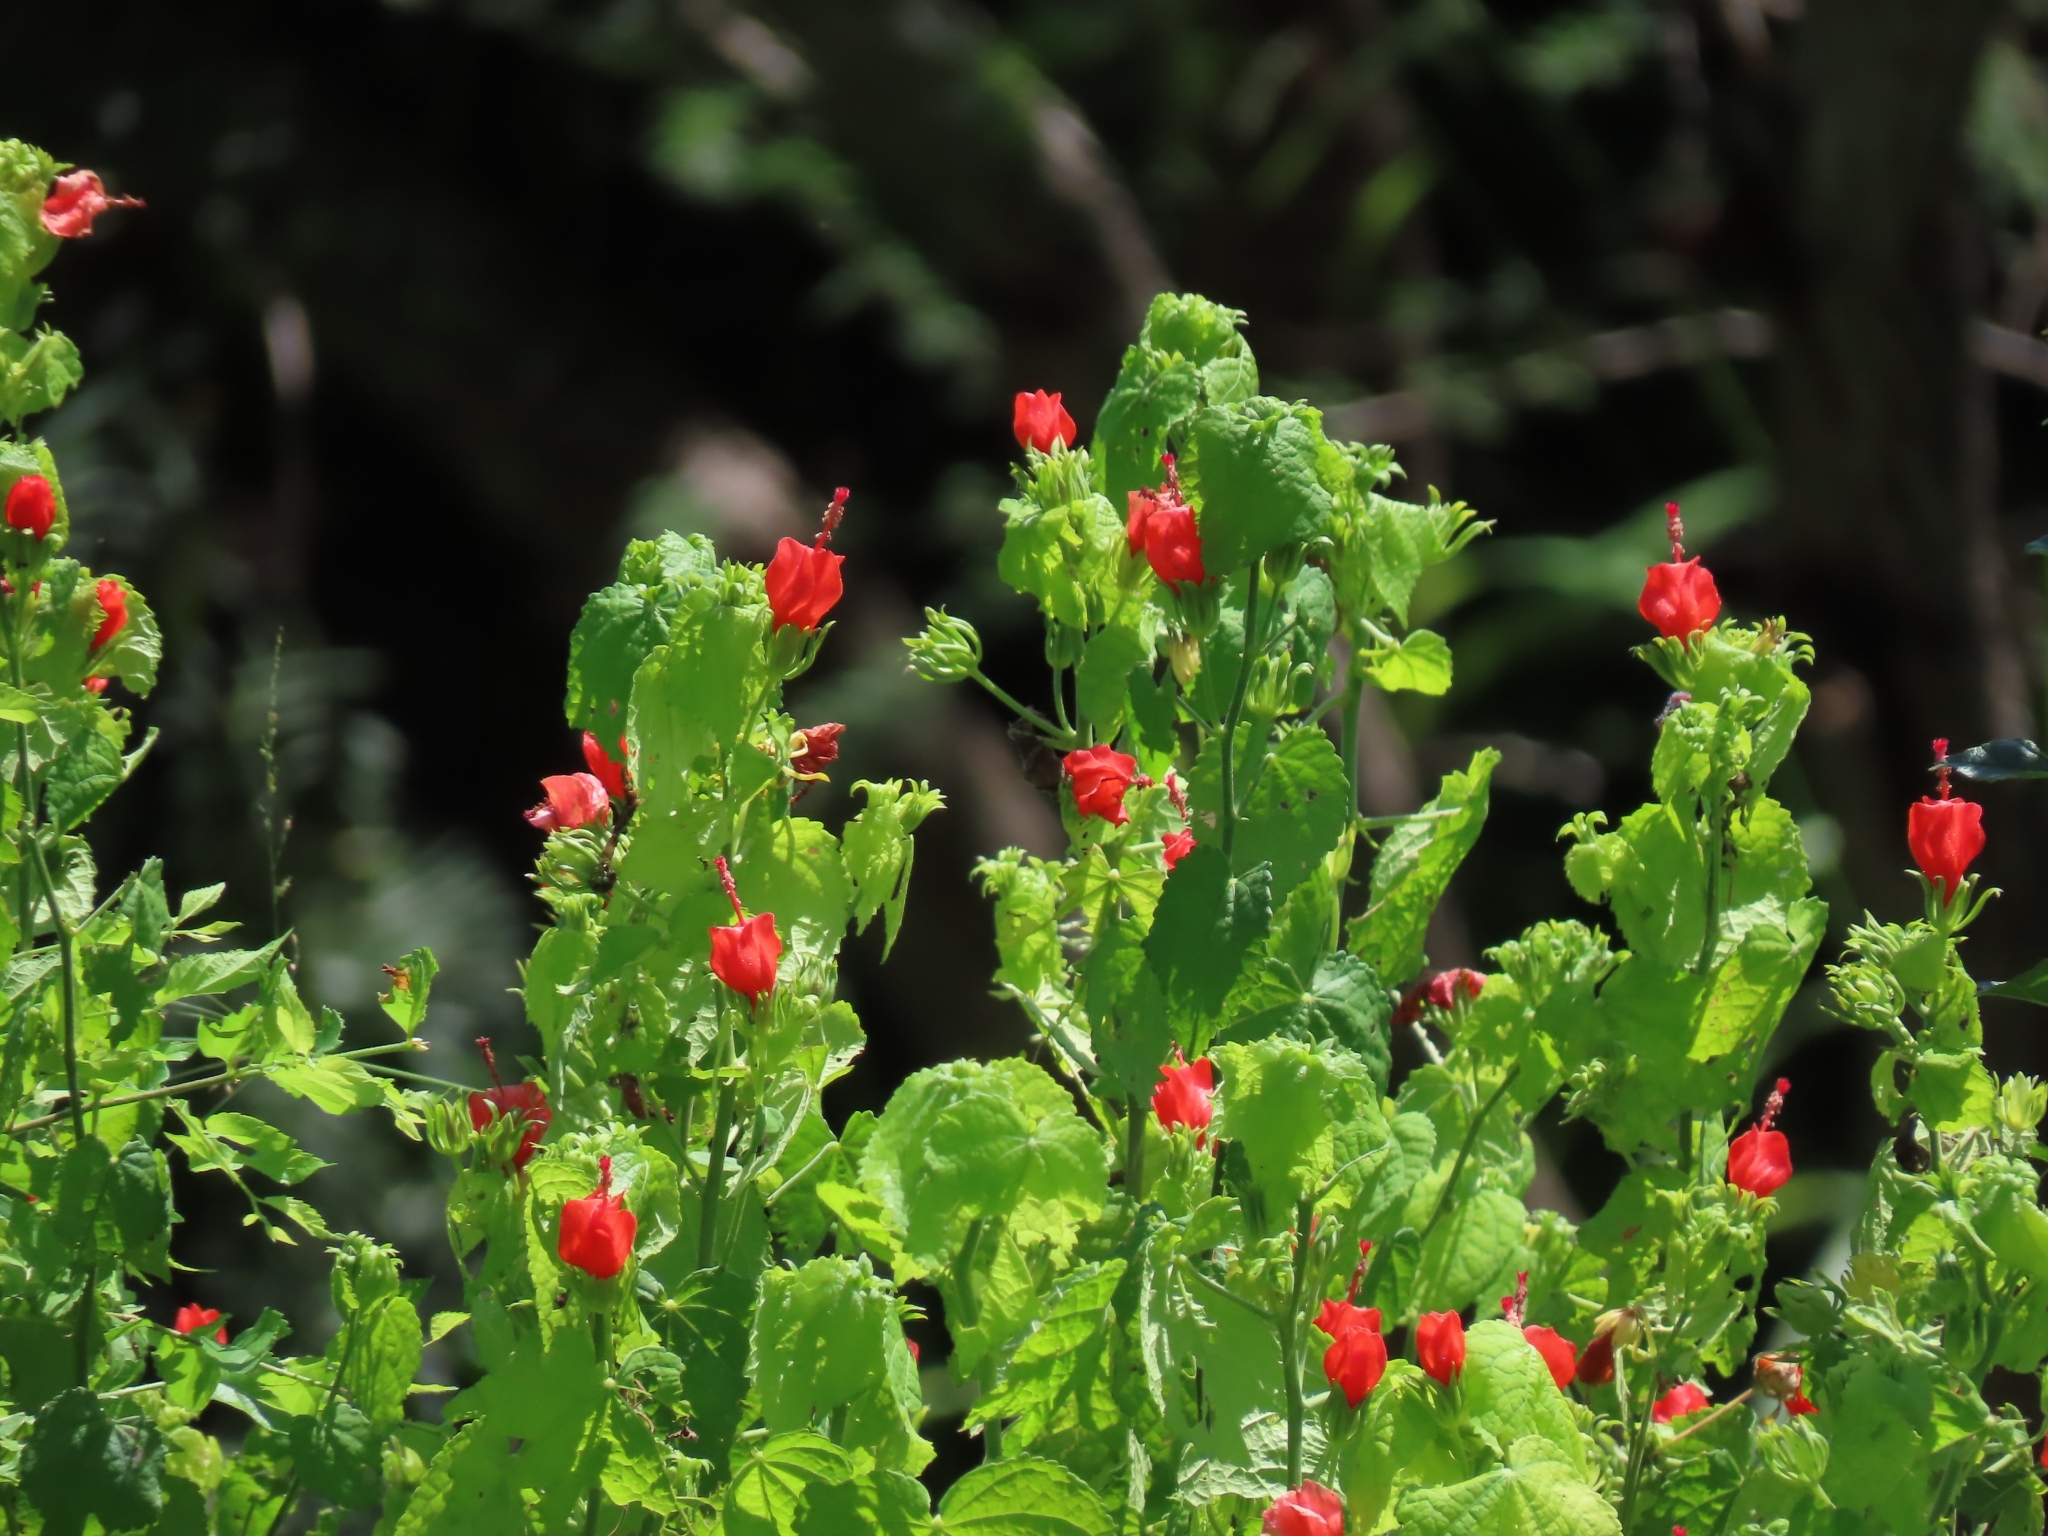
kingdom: Plantae
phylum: Tracheophyta
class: Magnoliopsida
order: Malvales
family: Malvaceae
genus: Malvaviscus
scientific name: Malvaviscus arboreus
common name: Wax mallow
